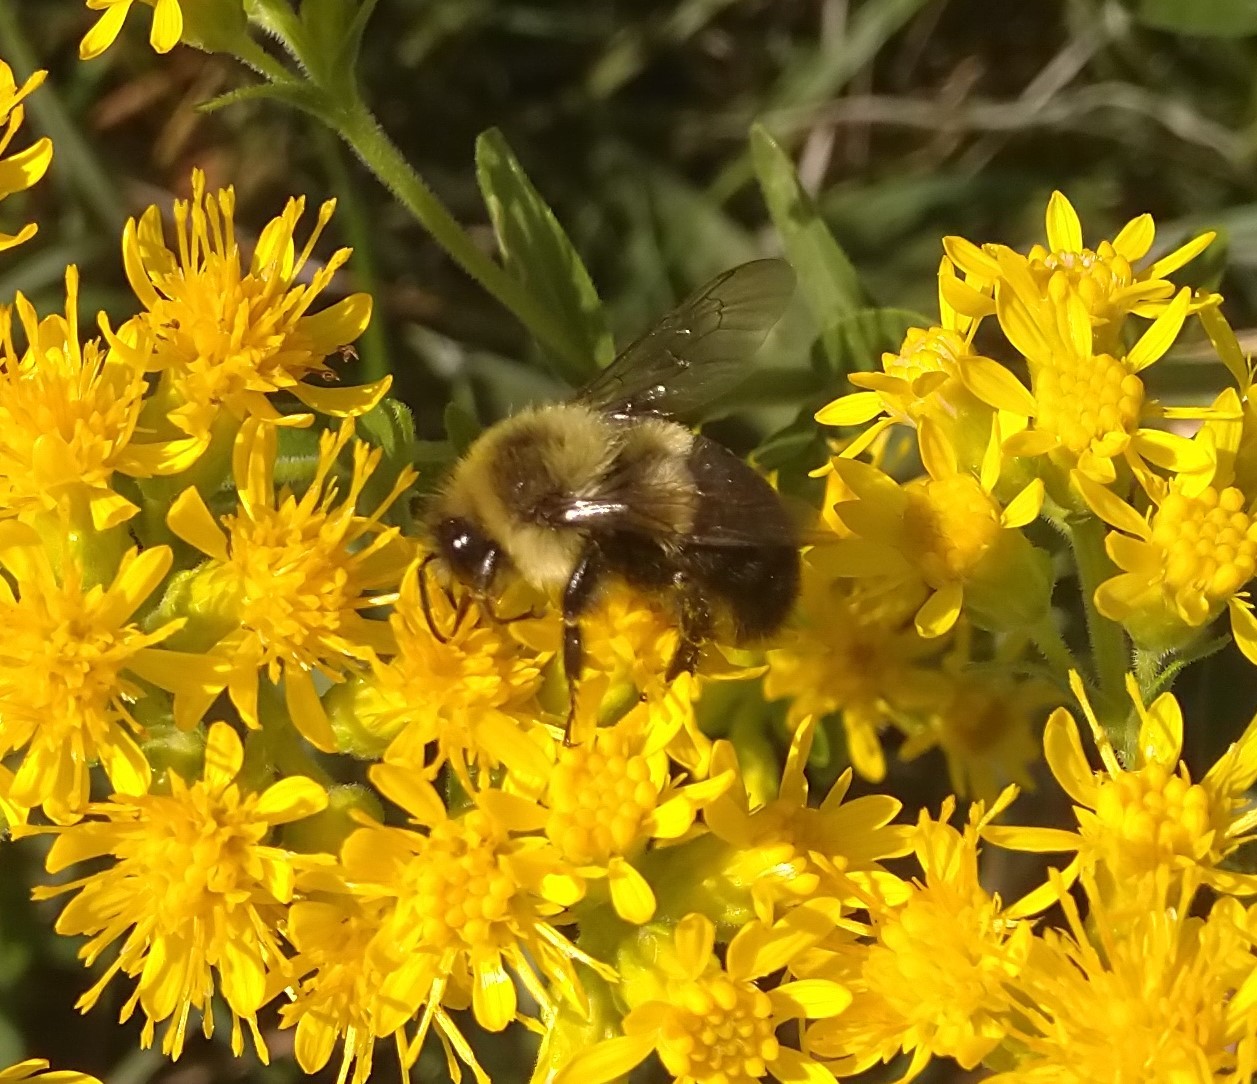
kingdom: Animalia
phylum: Arthropoda
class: Insecta
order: Hymenoptera
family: Apidae
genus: Bombus
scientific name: Bombus impatiens
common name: Common eastern bumble bee
